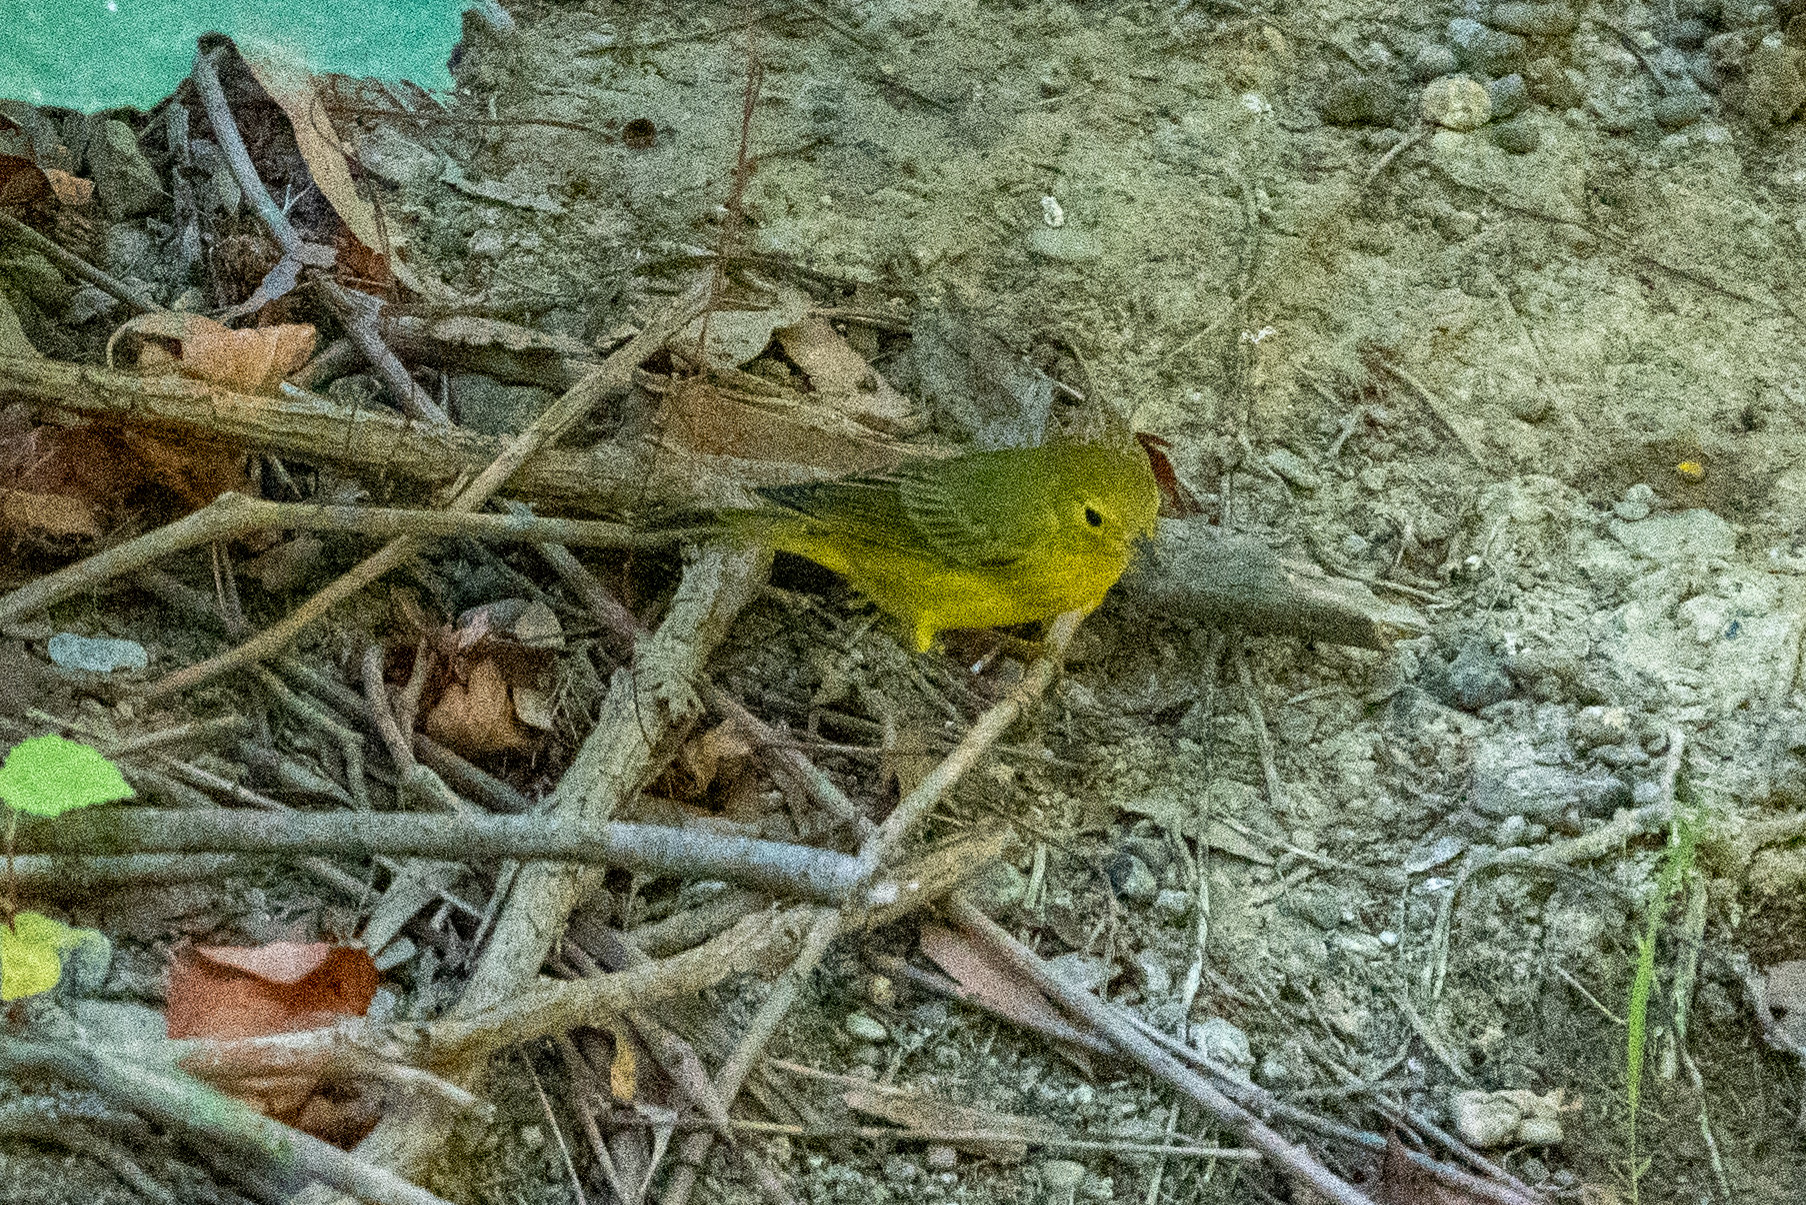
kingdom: Animalia
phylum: Chordata
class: Aves
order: Passeriformes
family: Parulidae
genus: Setophaga
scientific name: Setophaga petechia
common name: Yellow warbler
